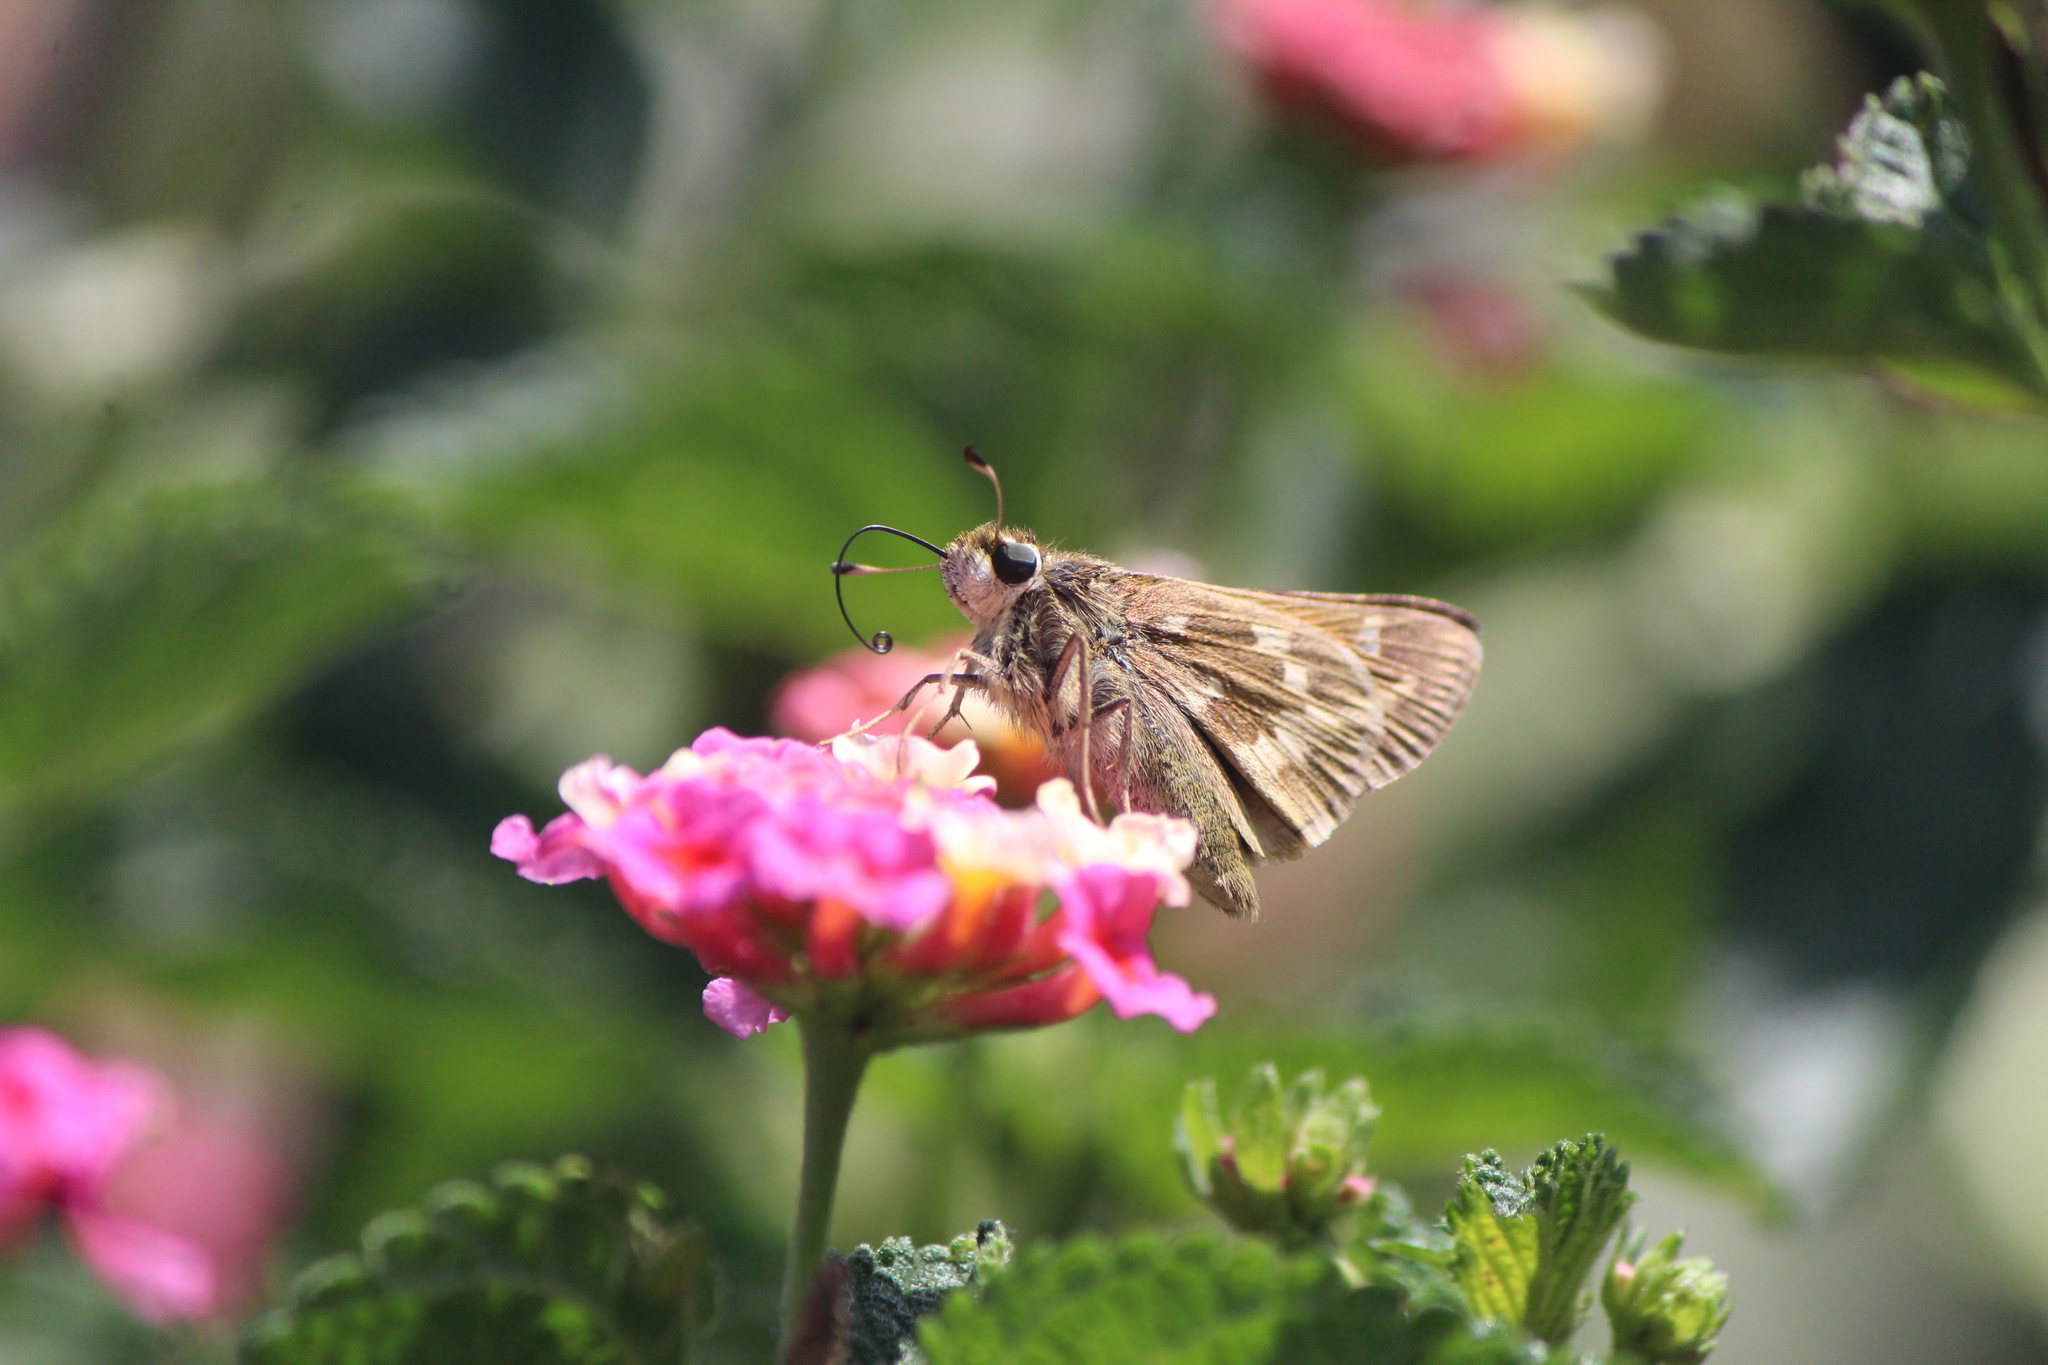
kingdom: Animalia
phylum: Arthropoda
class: Insecta
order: Lepidoptera
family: Hesperiidae
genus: Atalopedes
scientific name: Atalopedes
